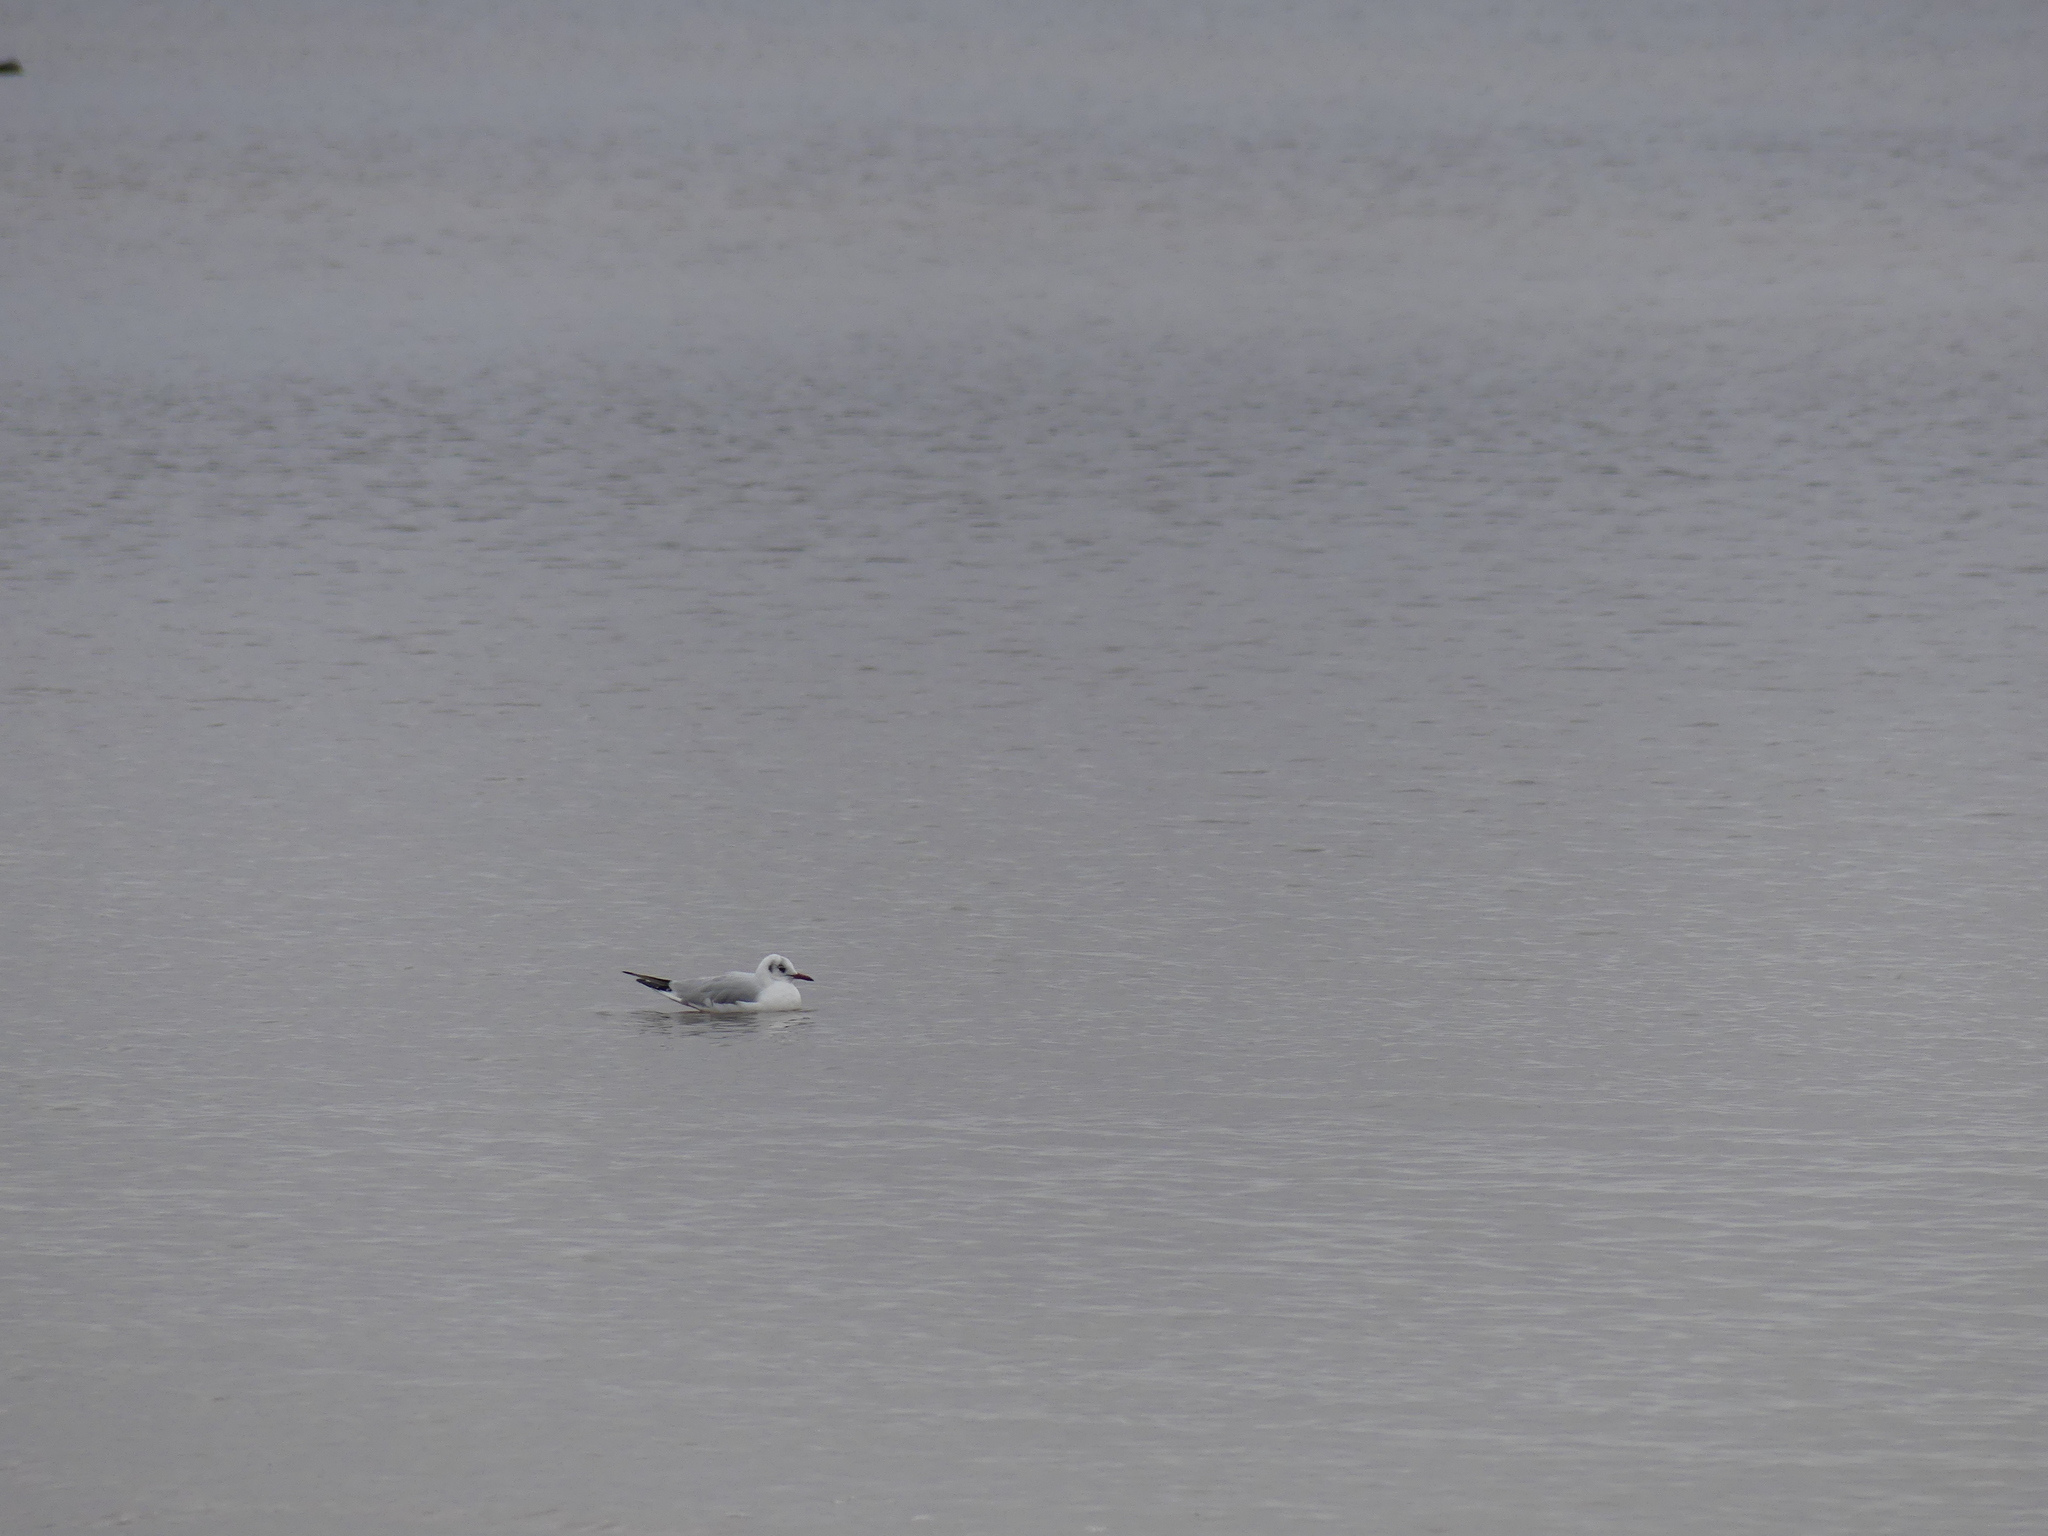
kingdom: Animalia
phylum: Chordata
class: Aves
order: Charadriiformes
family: Laridae
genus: Chroicocephalus
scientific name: Chroicocephalus ridibundus
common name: Black-headed gull
